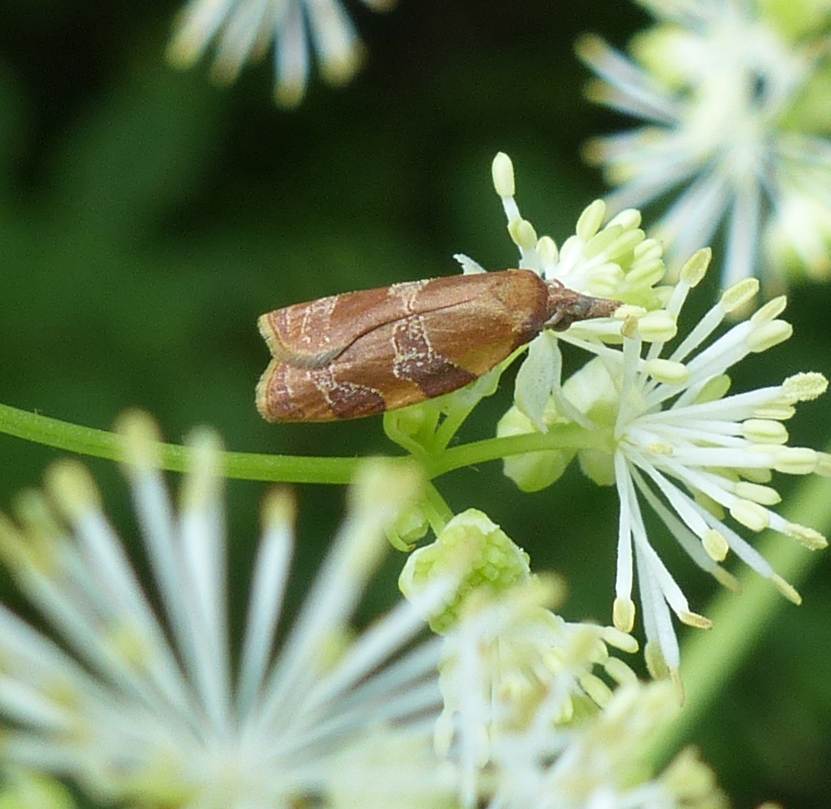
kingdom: Animalia
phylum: Arthropoda
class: Insecta
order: Lepidoptera
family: Tortricidae
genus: Cenopis
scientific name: Cenopis diluticostana
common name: Spring dead-leaf roller moth
